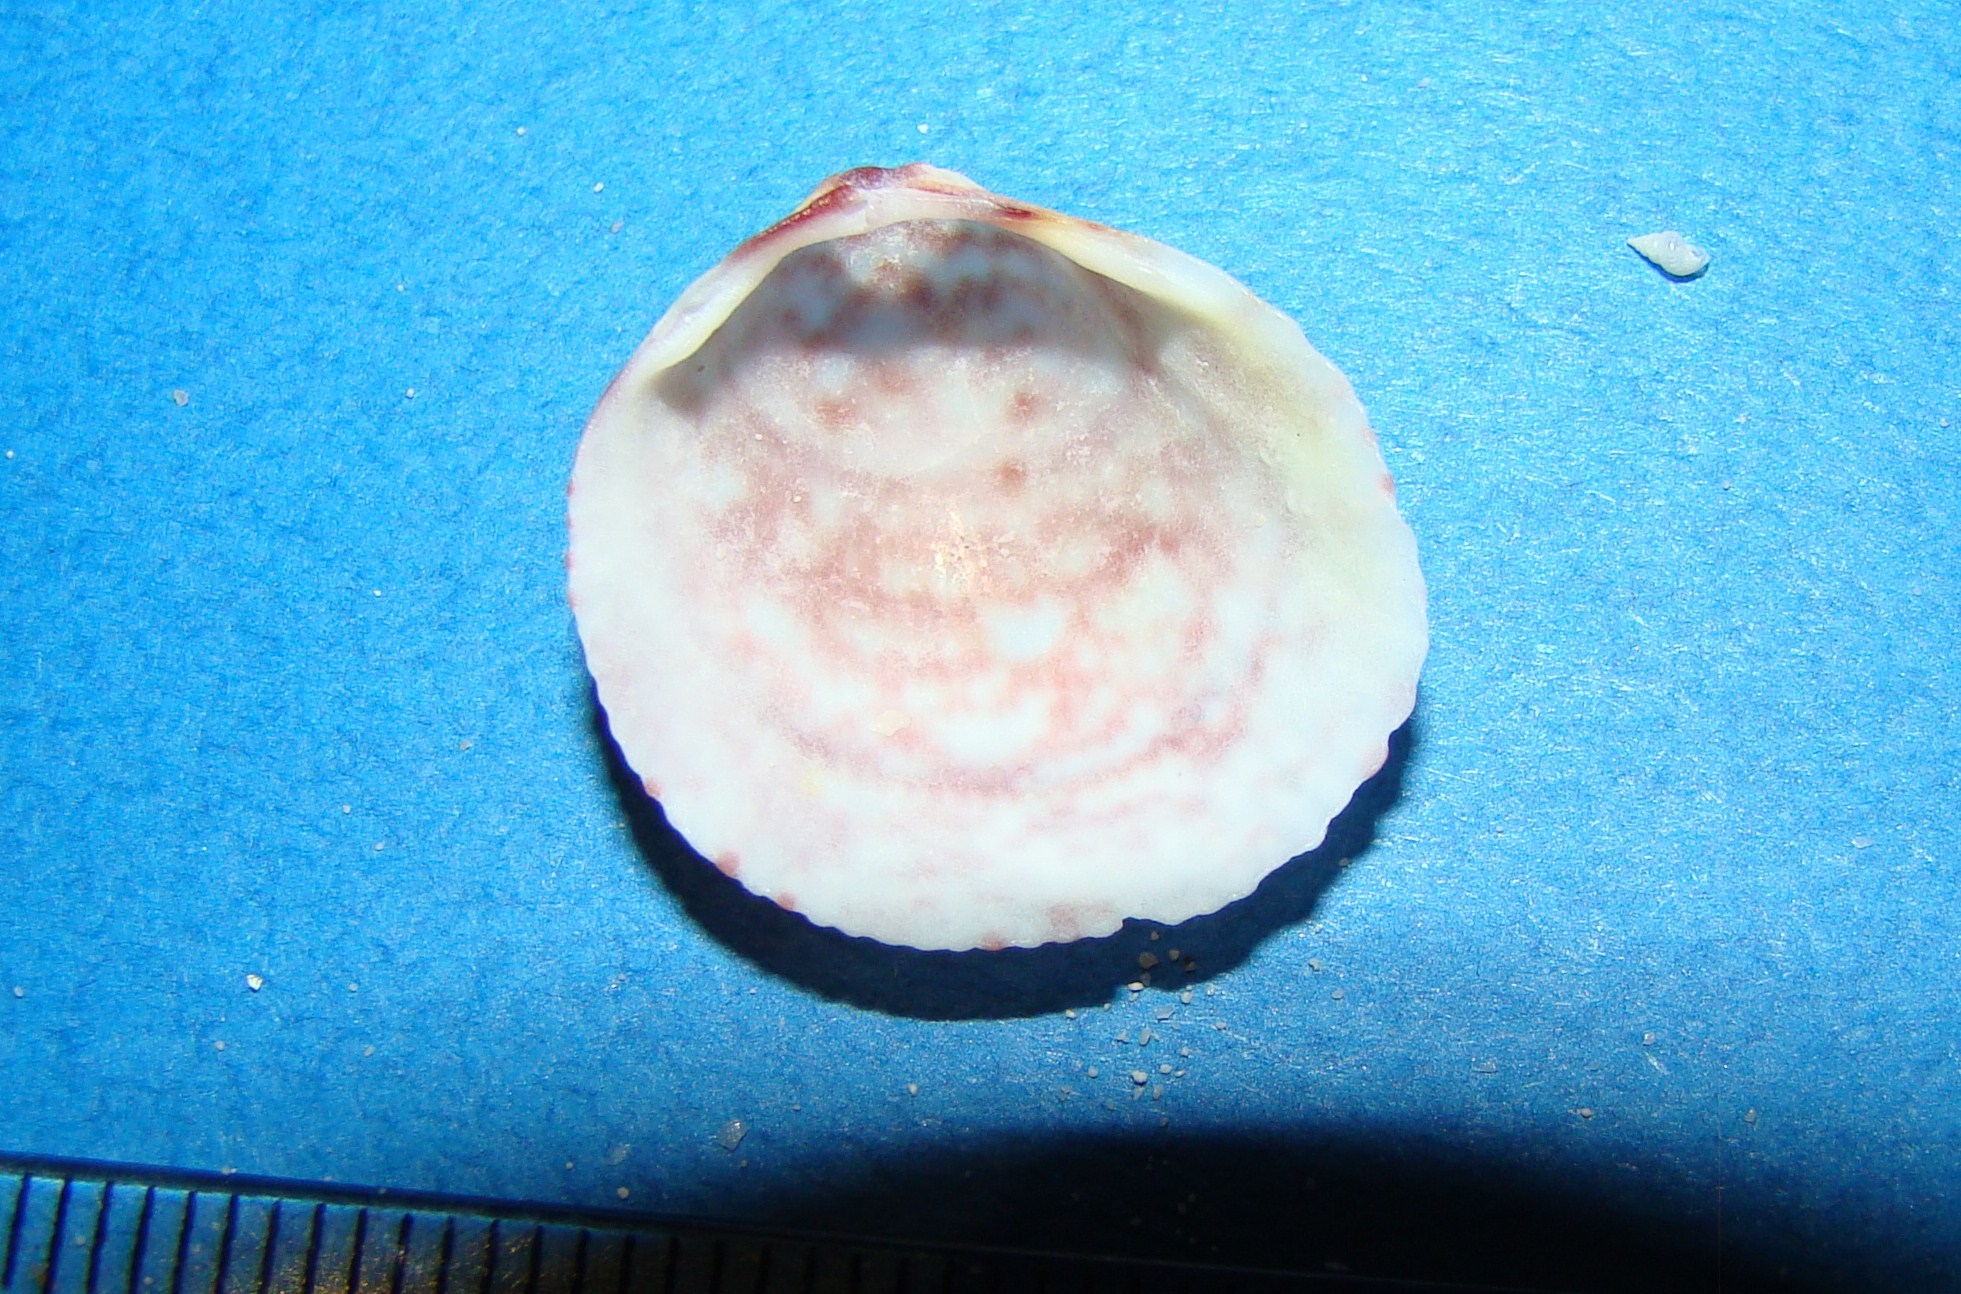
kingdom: Animalia
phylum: Mollusca
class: Bivalvia
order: Cardiida
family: Cardiidae
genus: Fulvia
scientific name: Fulvia australis
